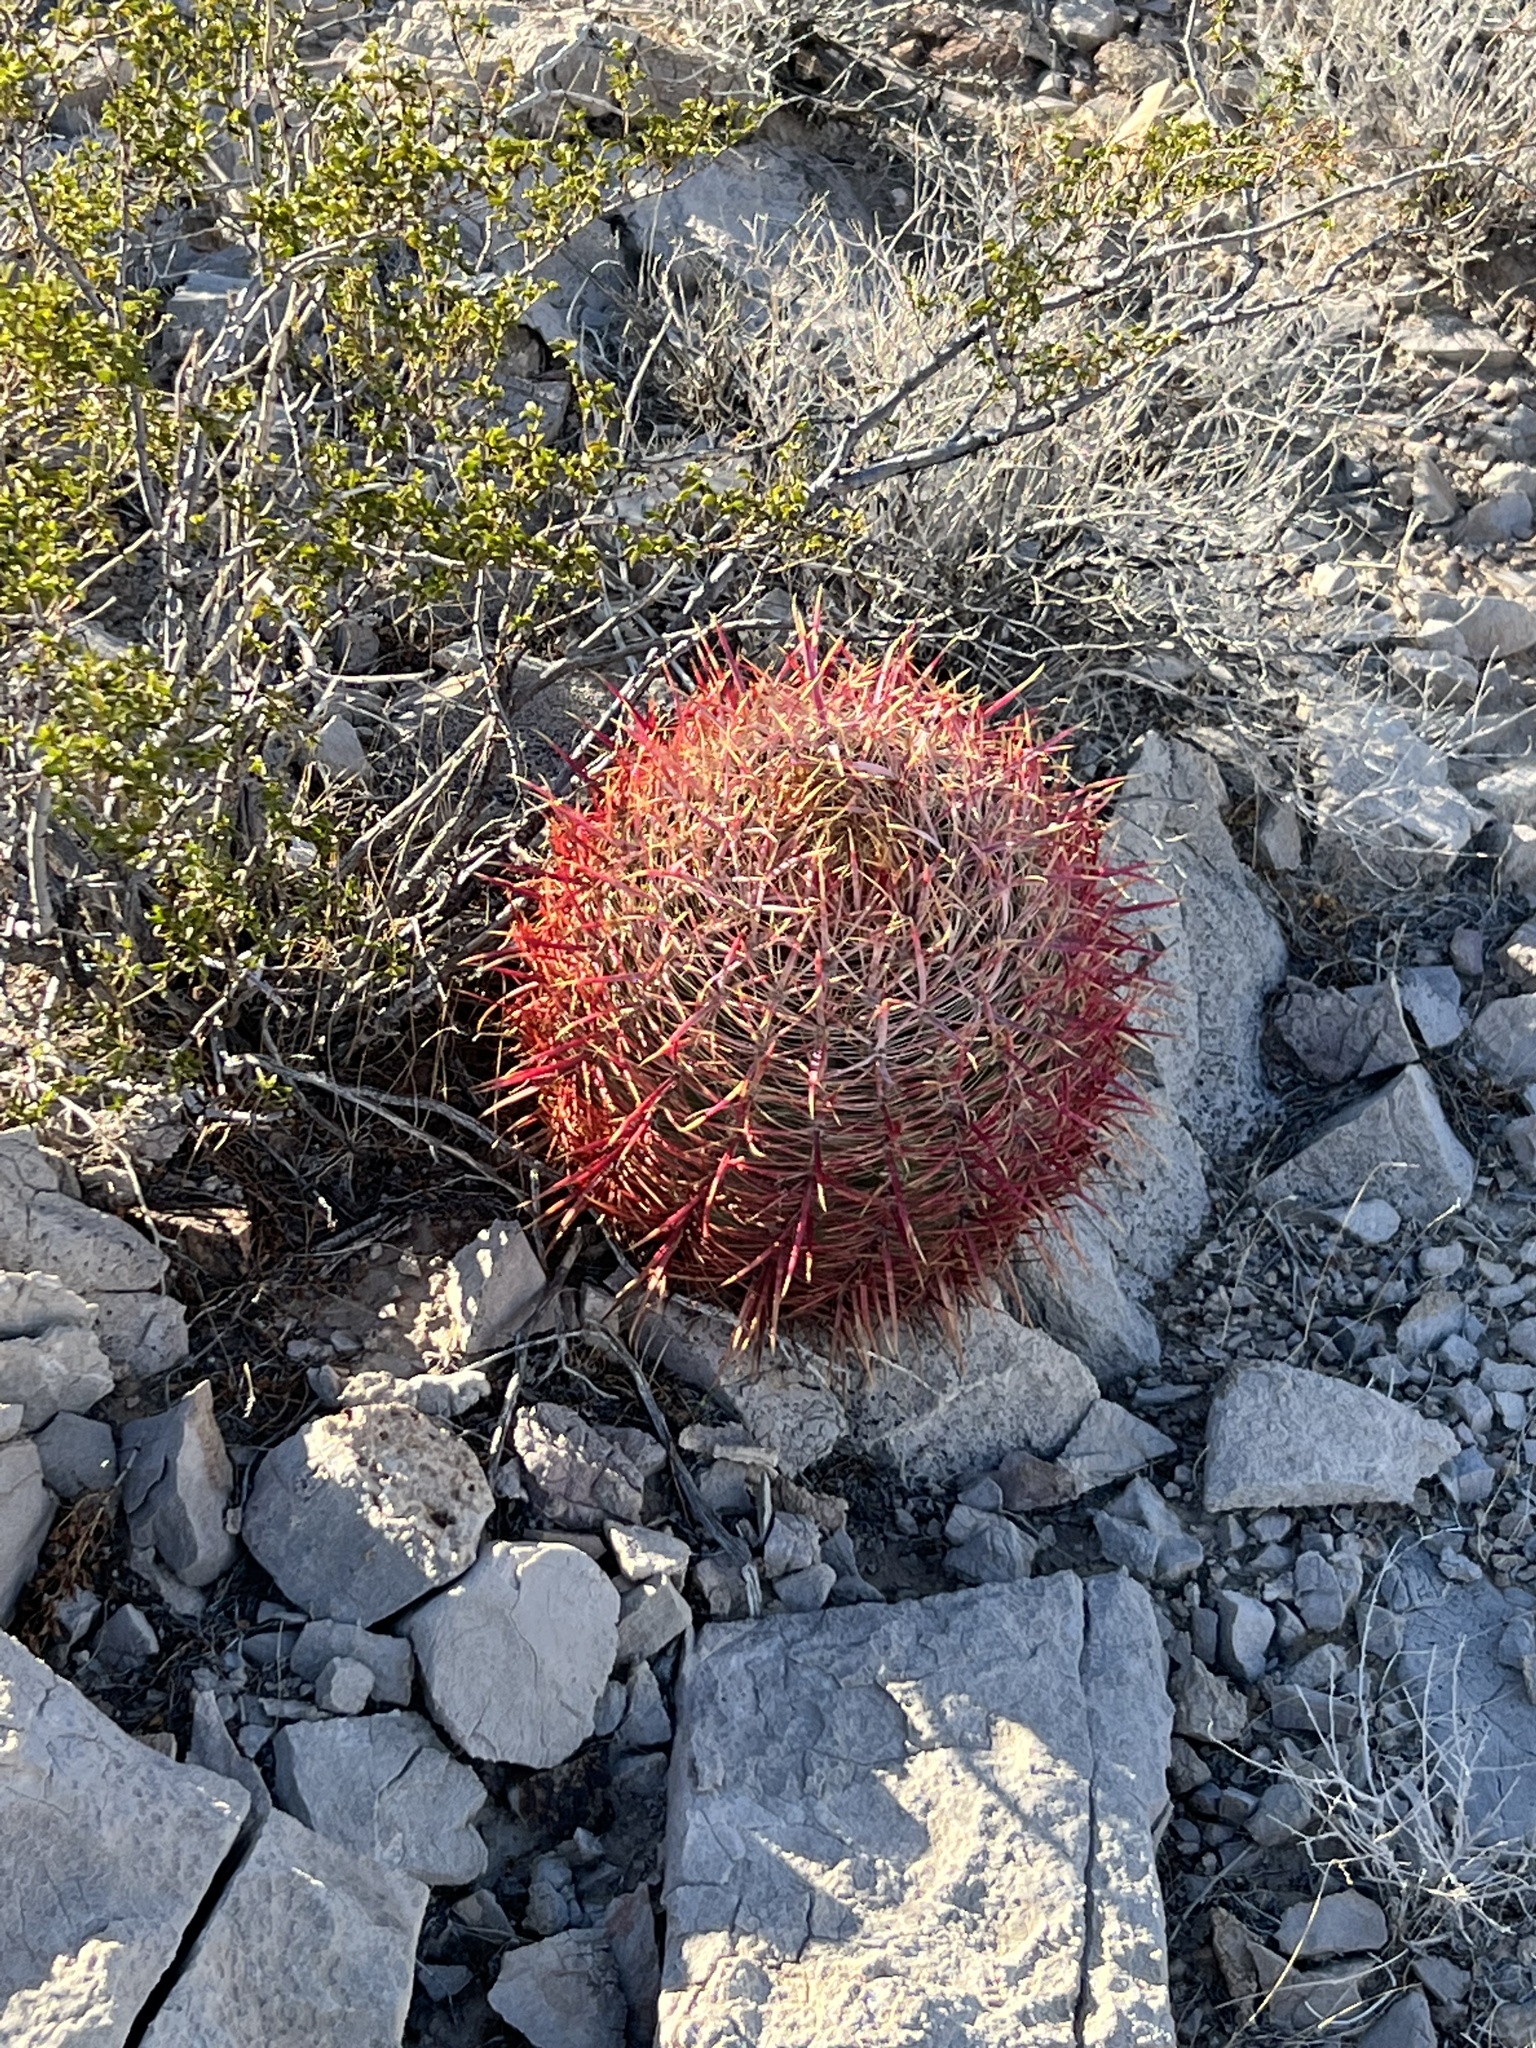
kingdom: Plantae
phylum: Tracheophyta
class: Magnoliopsida
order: Caryophyllales
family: Cactaceae
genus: Ferocactus
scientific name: Ferocactus cylindraceus
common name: California barrel cactus
